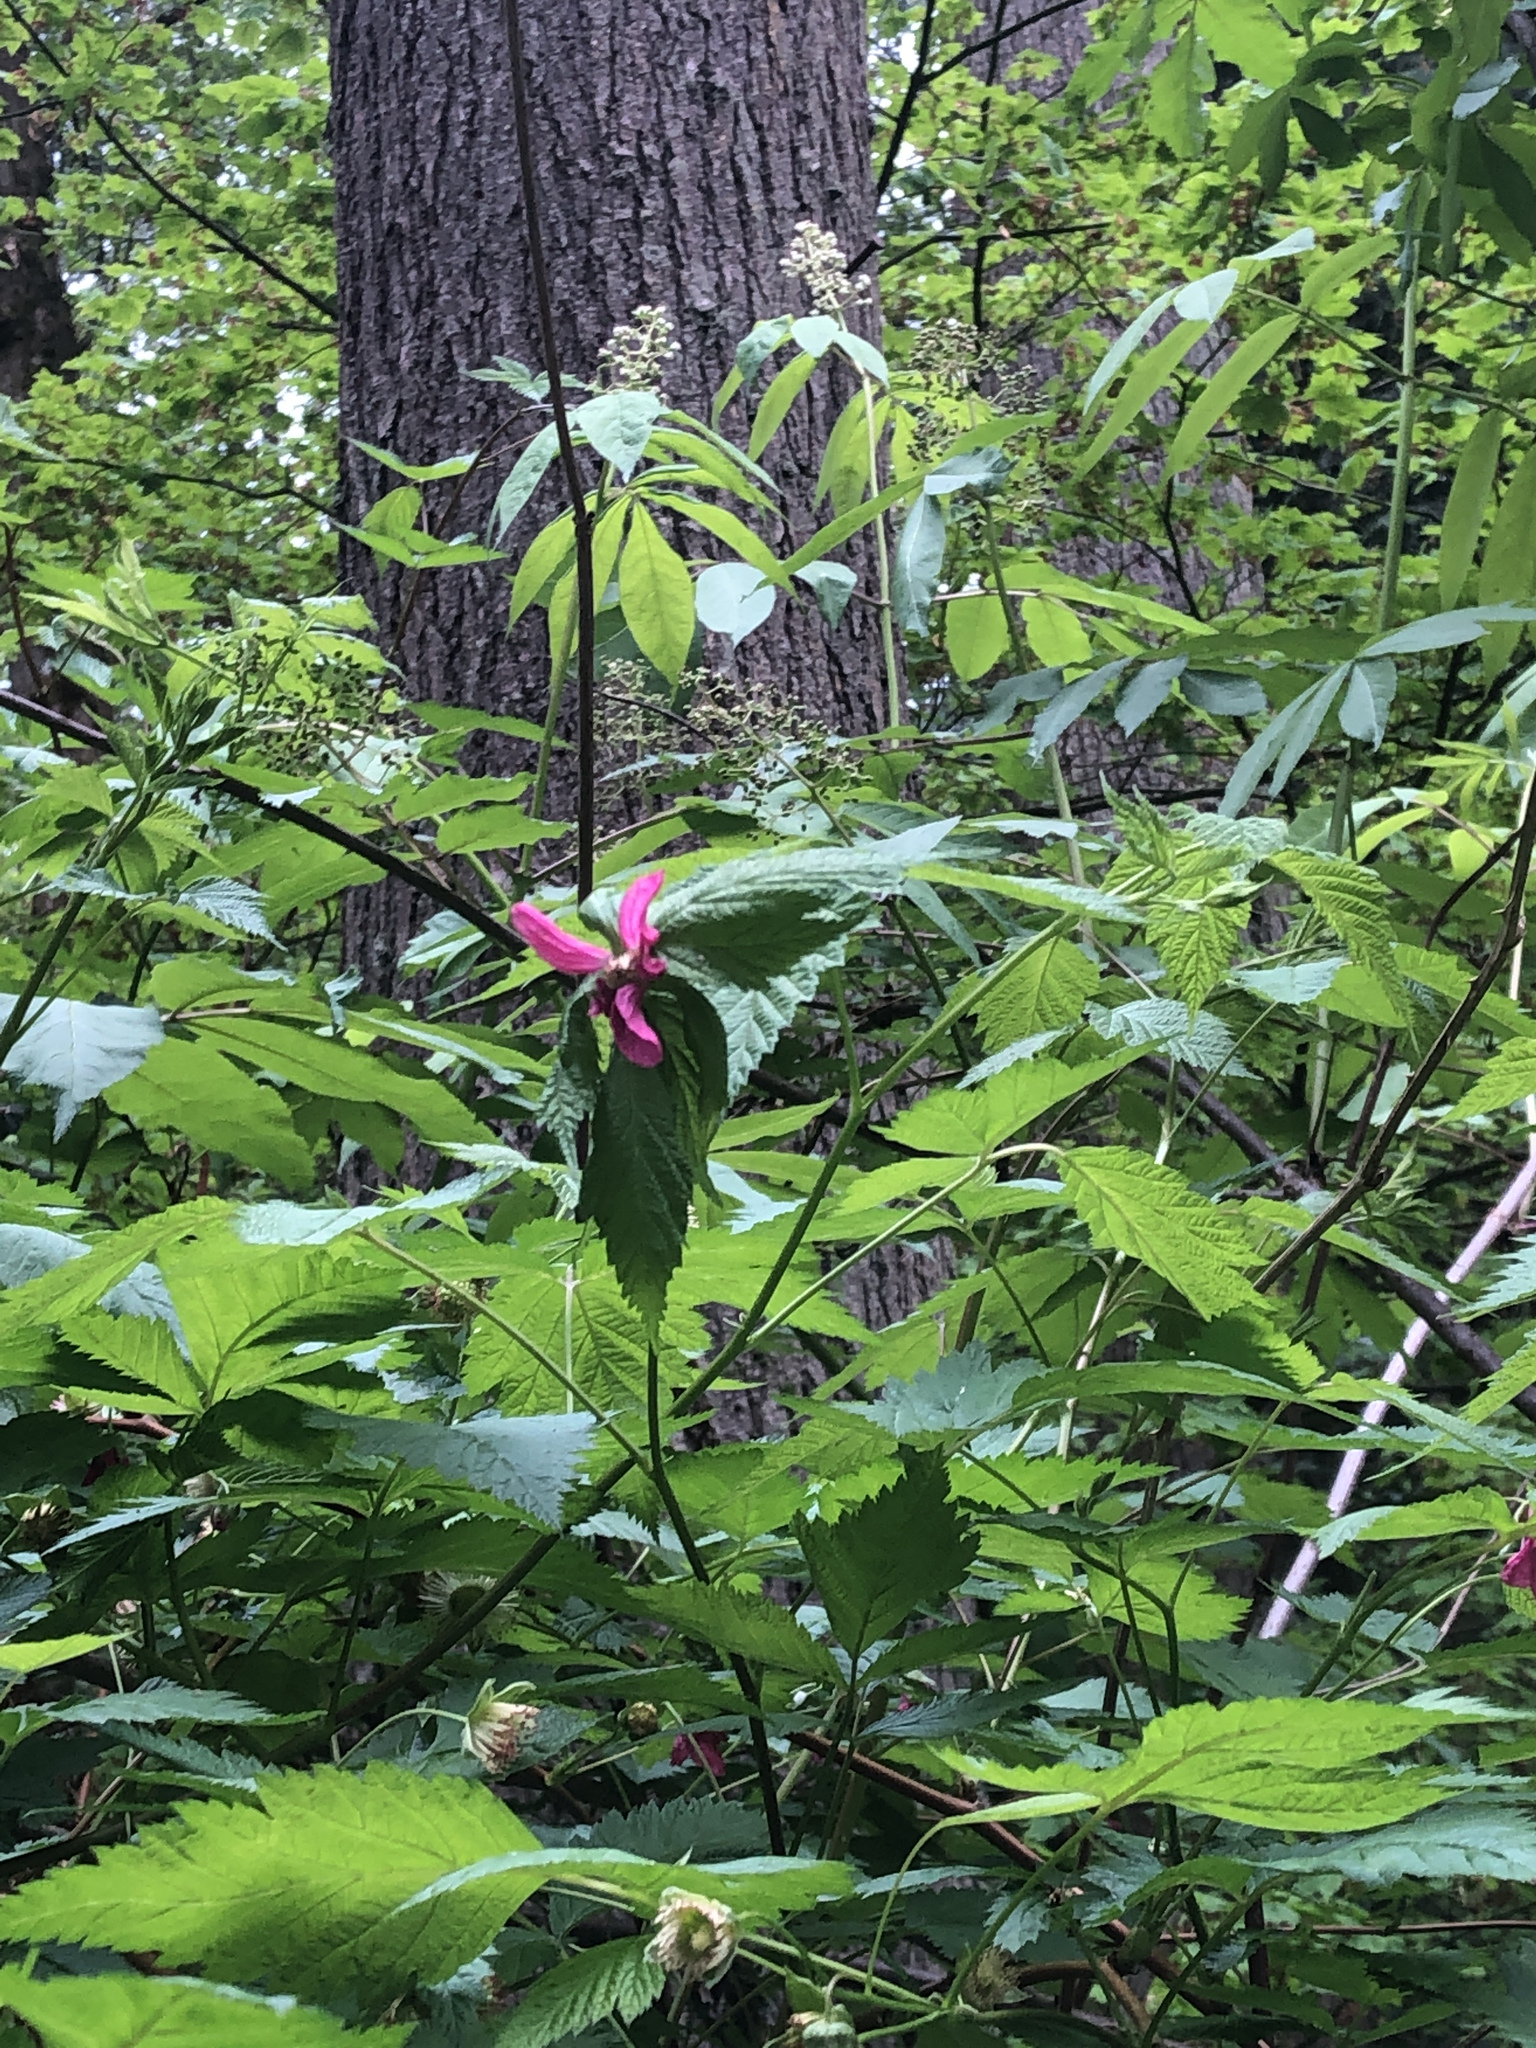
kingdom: Plantae
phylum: Tracheophyta
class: Magnoliopsida
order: Rosales
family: Rosaceae
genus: Rubus
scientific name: Rubus spectabilis
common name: Salmonberry
